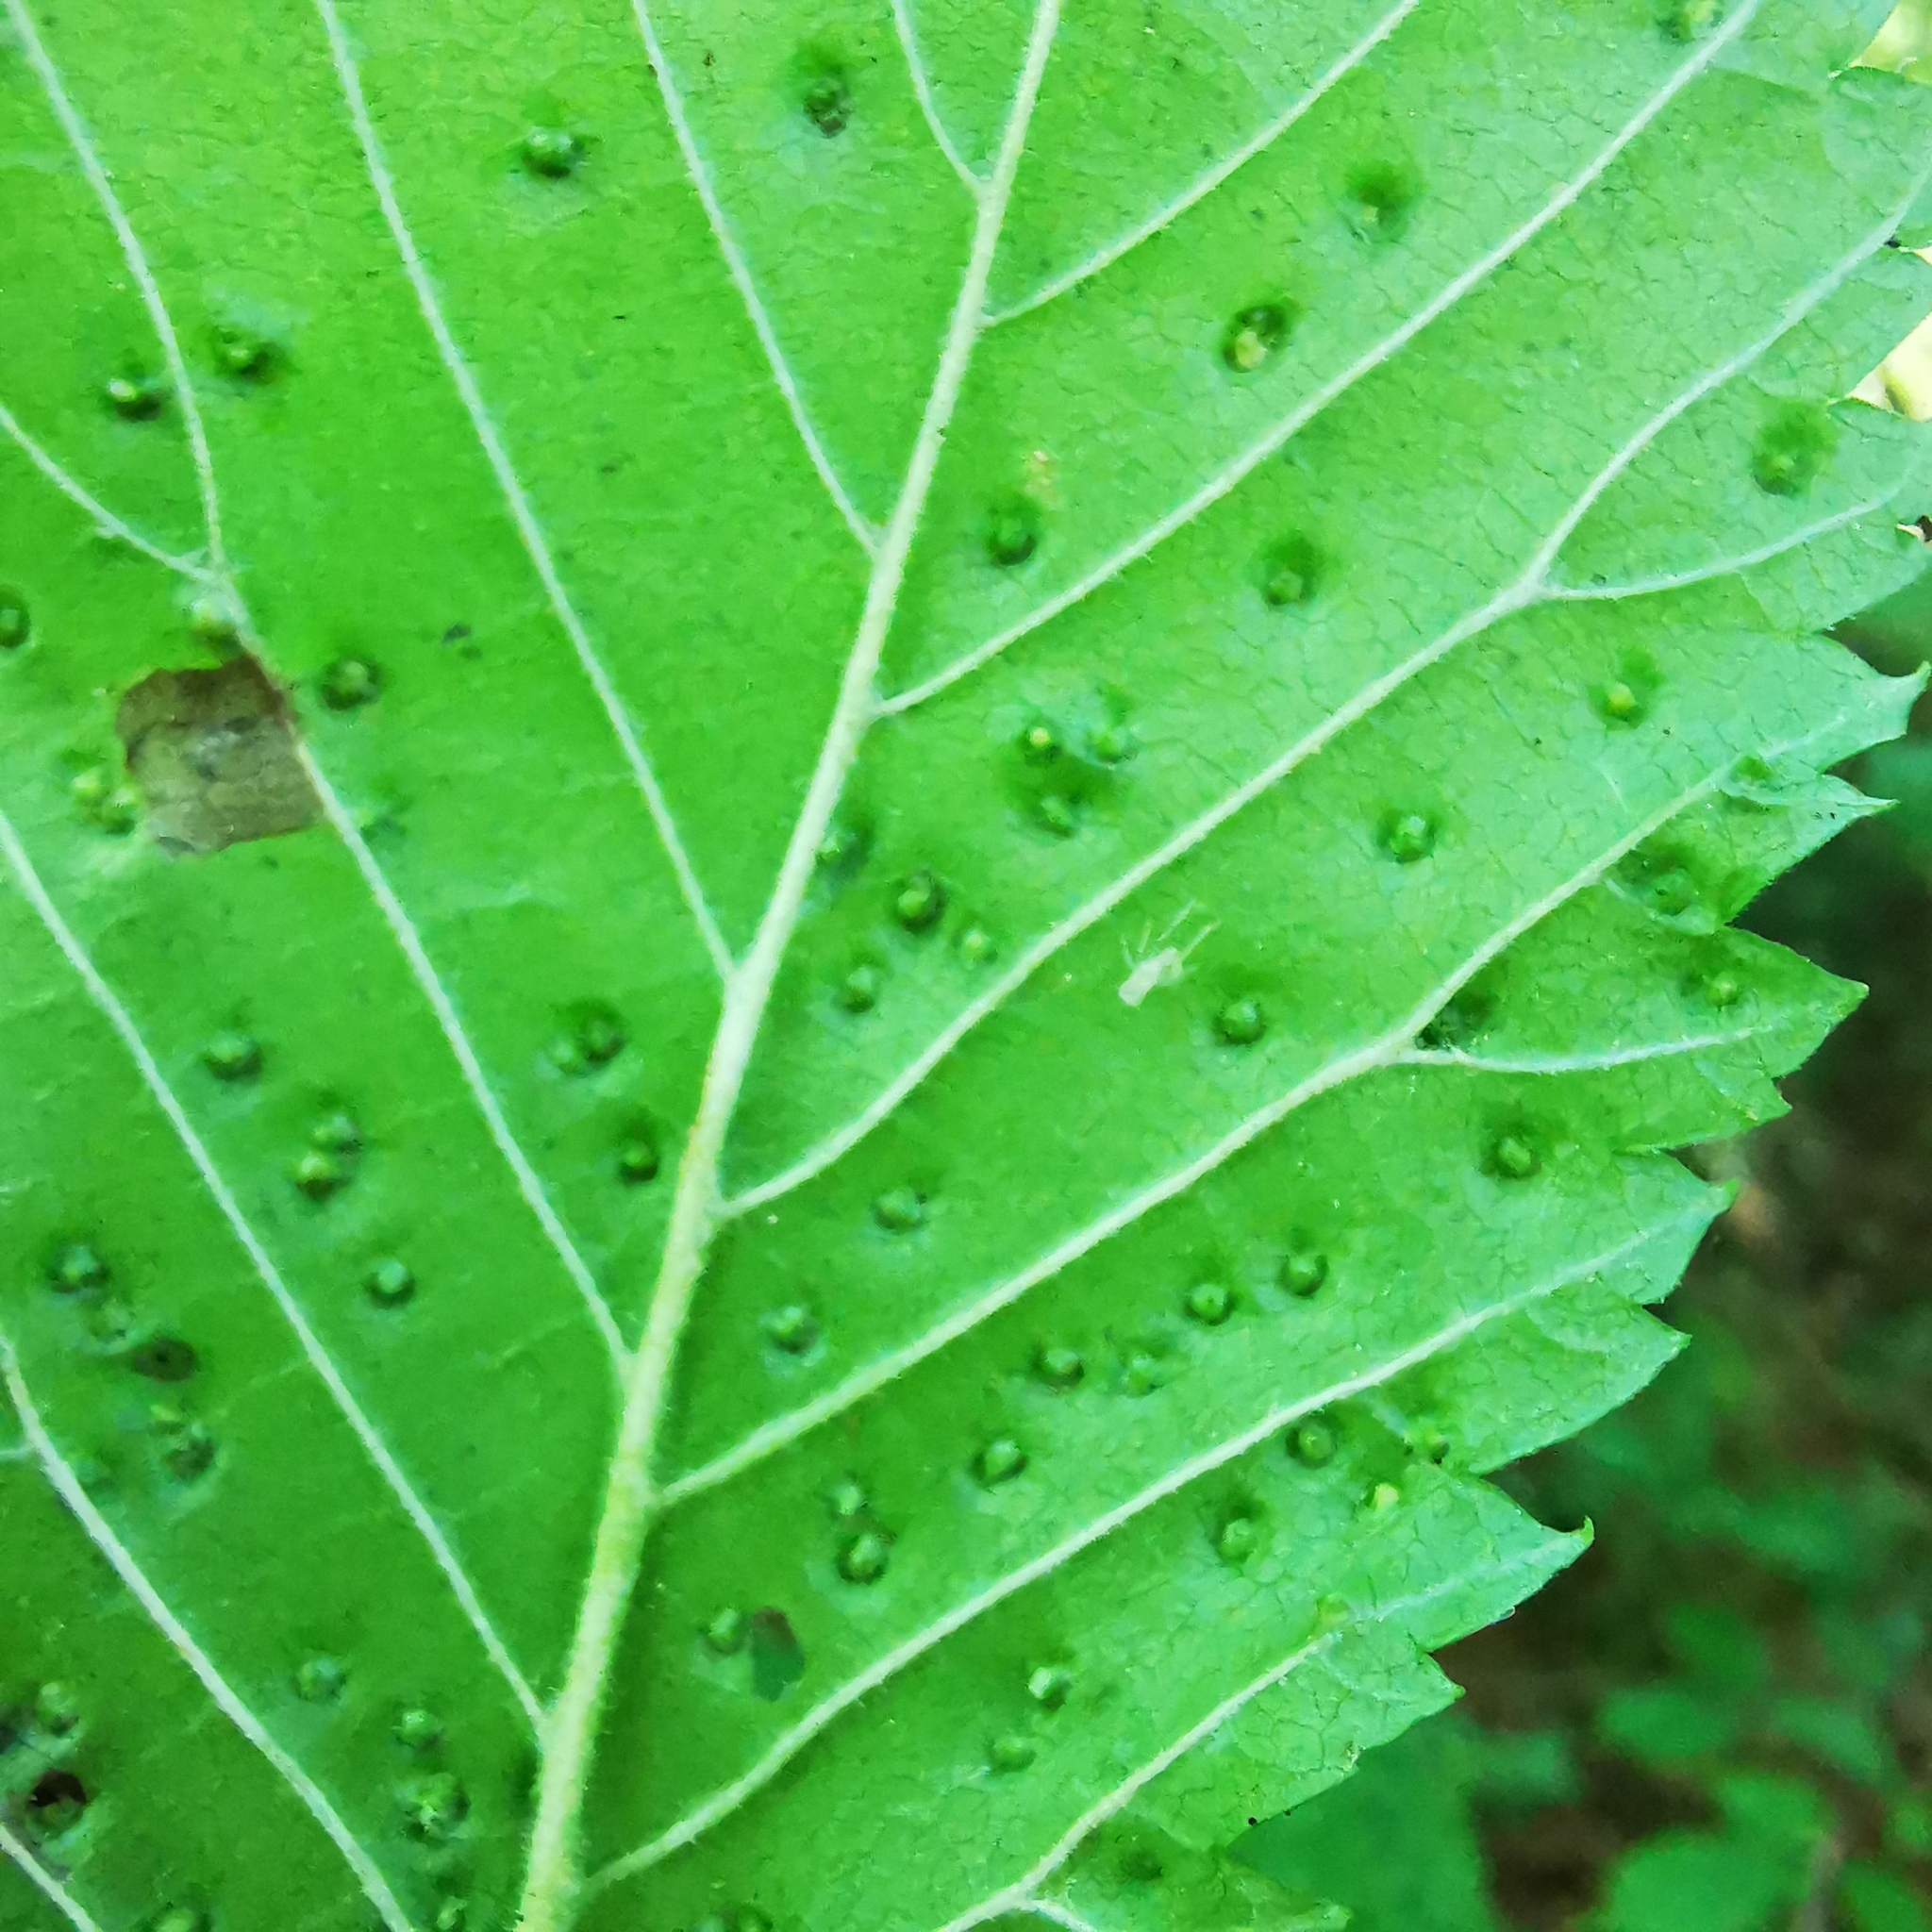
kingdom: Animalia
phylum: Arthropoda
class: Arachnida
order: Trombidiformes
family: Eriophyidae
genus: Aceria
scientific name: Aceria brevipunctata
